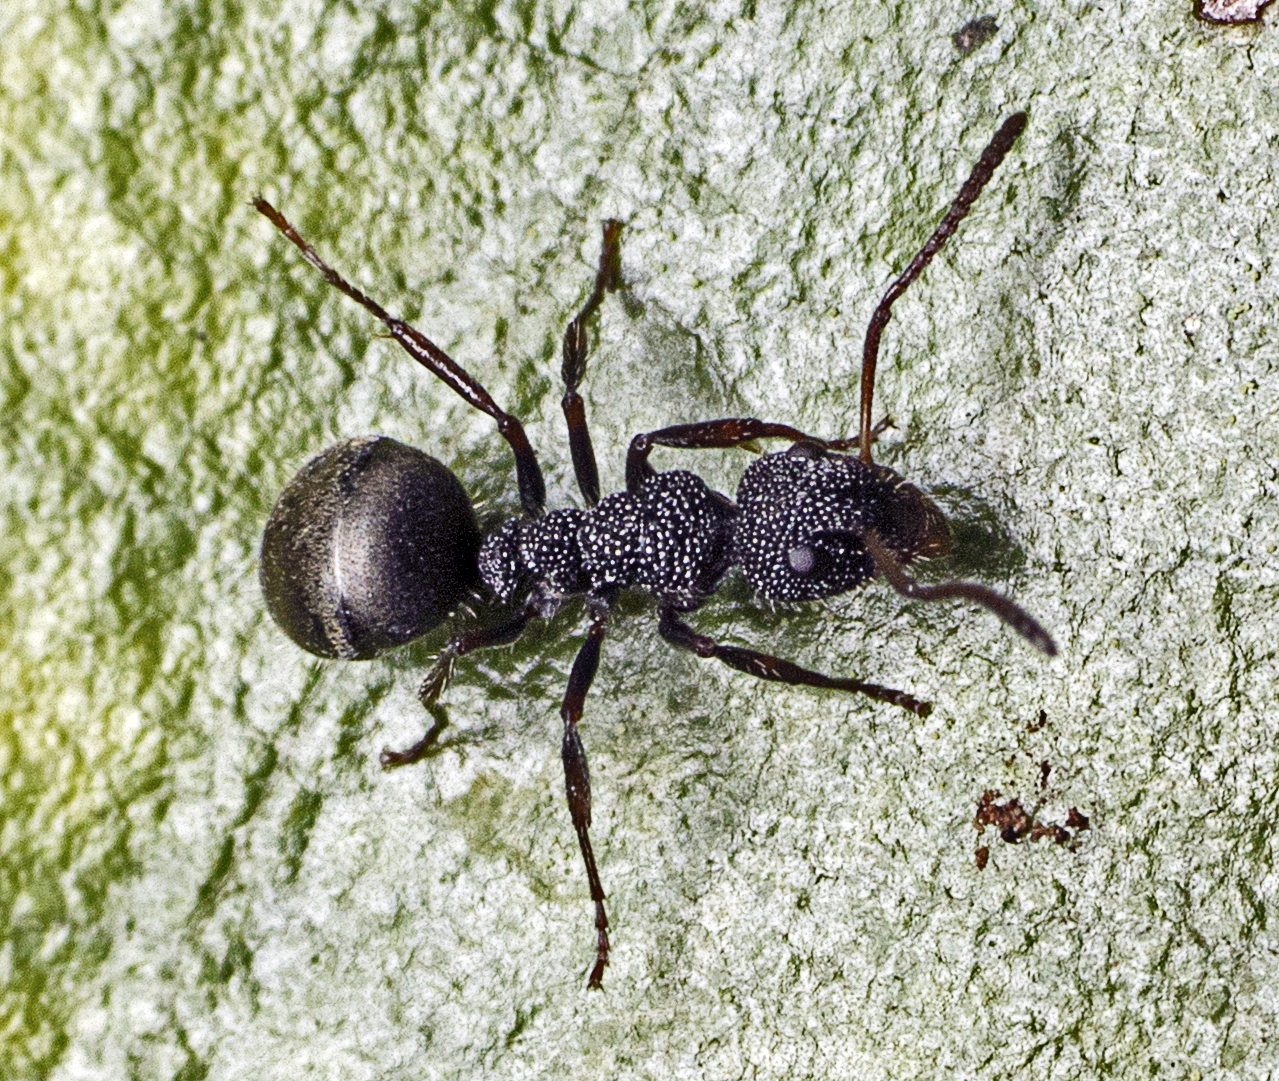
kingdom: Animalia
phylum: Arthropoda
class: Insecta
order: Hymenoptera
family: Formicidae
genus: Dolichoderus
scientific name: Dolichoderus scrobiculatus
